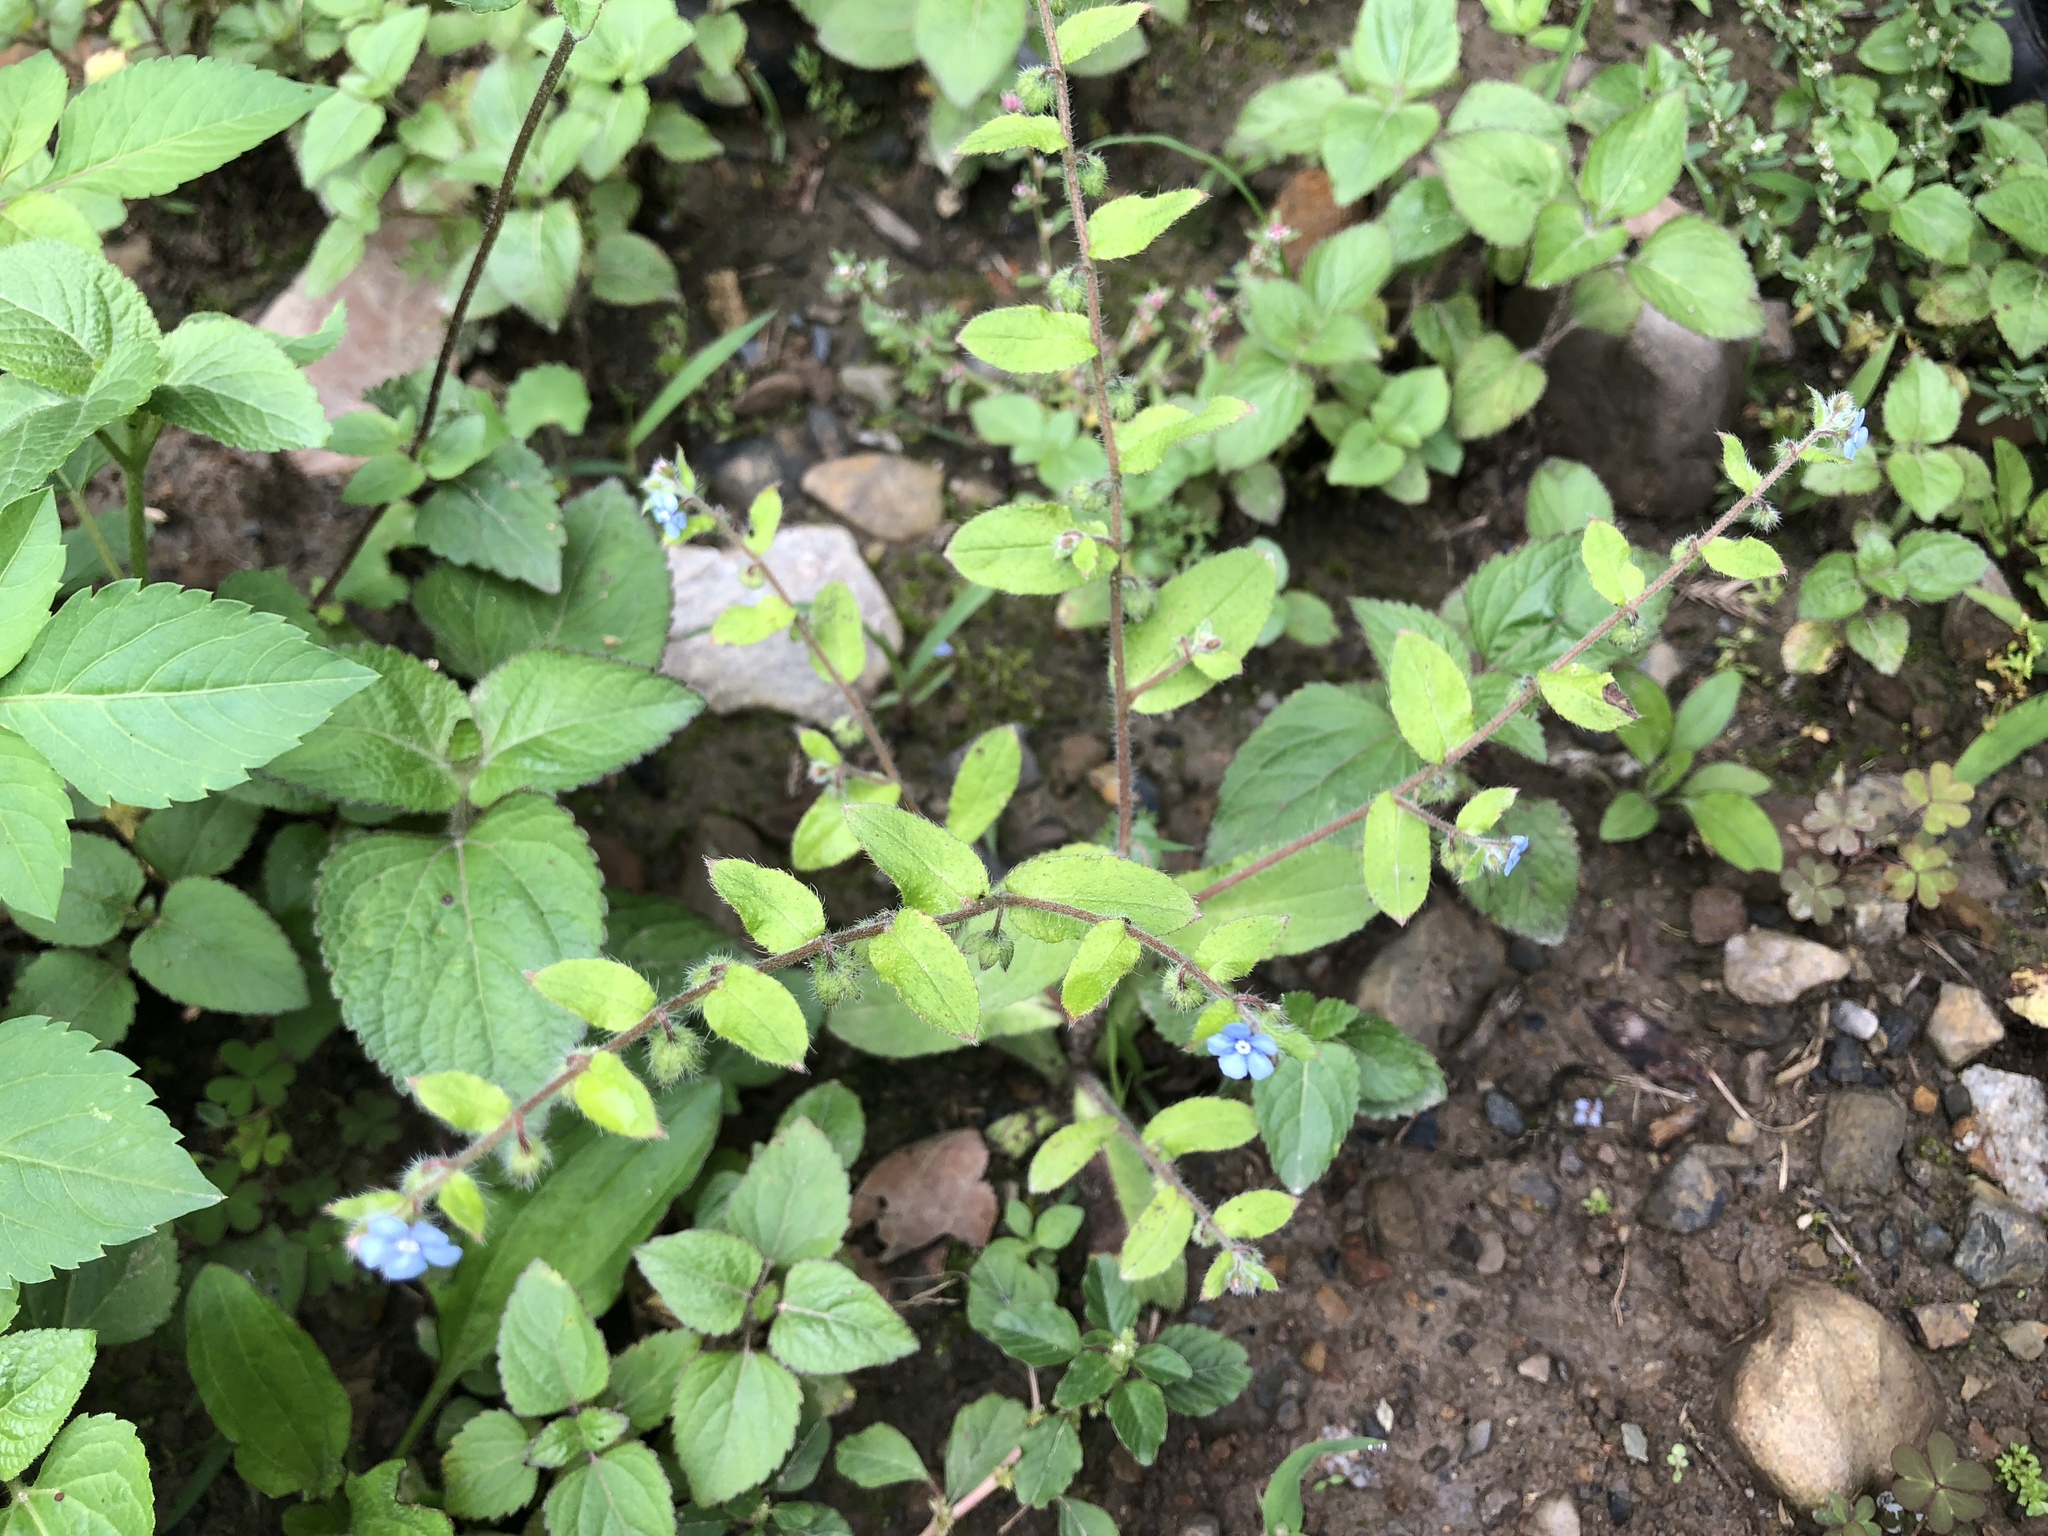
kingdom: Plantae
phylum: Tracheophyta
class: Magnoliopsida
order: Boraginales
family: Boraginaceae
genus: Thyrocarpus
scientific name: Thyrocarpus sampsonii
